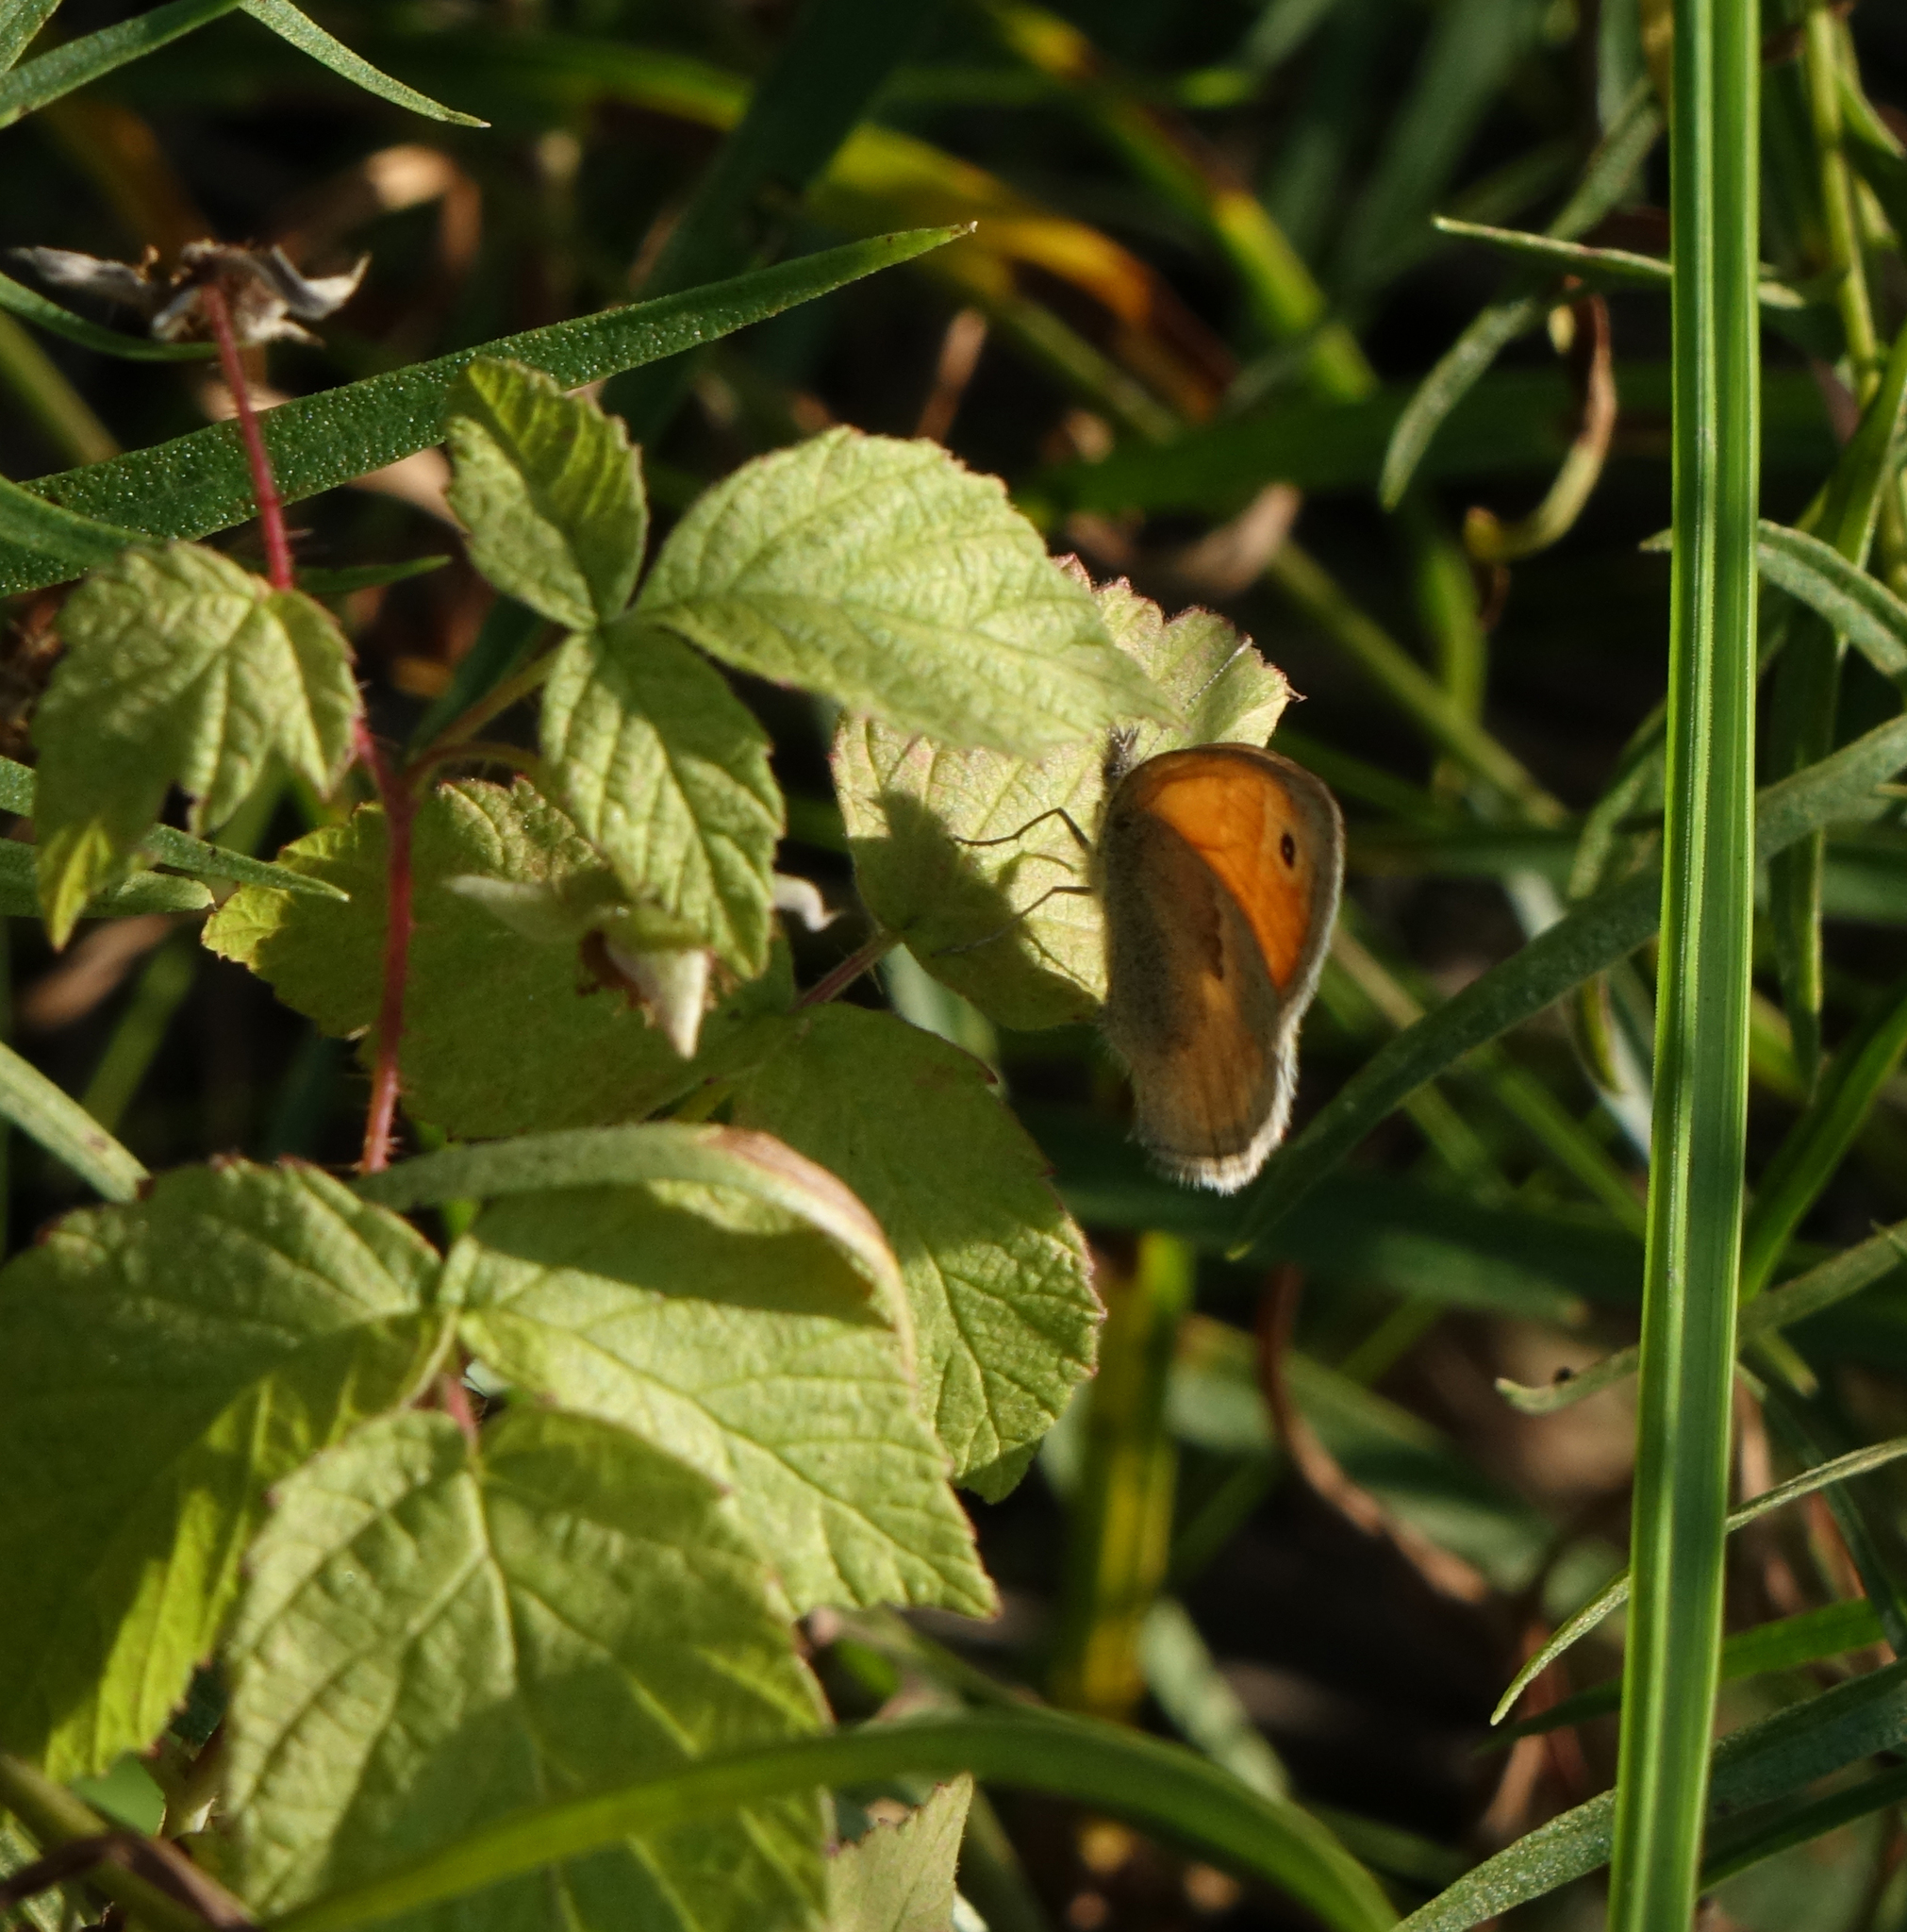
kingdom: Animalia
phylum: Arthropoda
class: Insecta
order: Lepidoptera
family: Nymphalidae
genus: Coenonympha
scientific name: Coenonympha pamphilus
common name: Small heath
